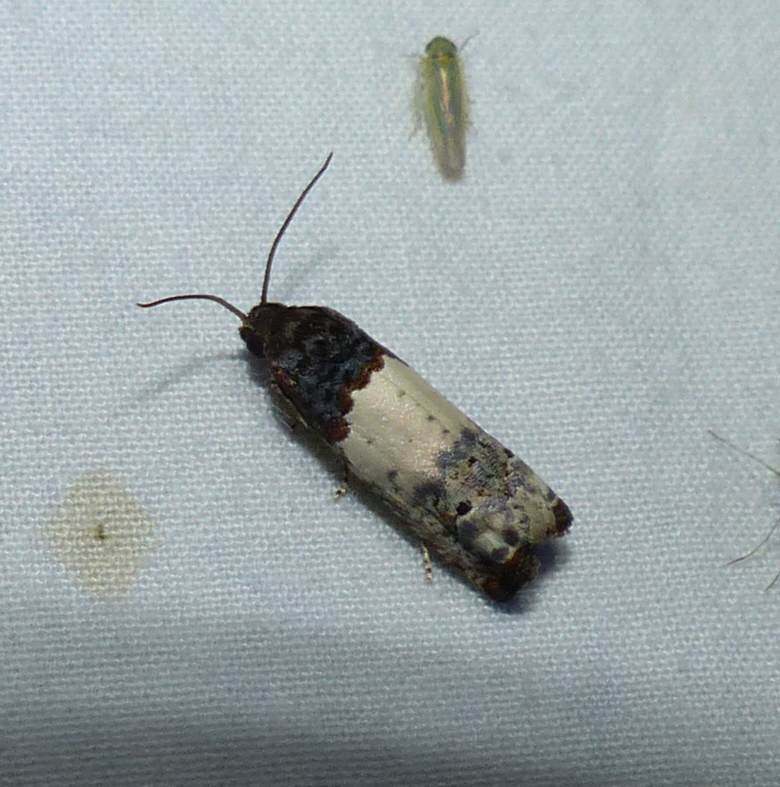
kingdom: Animalia
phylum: Arthropoda
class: Insecta
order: Lepidoptera
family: Tortricidae
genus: Epiblema
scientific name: Epiblema scudderiana
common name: Goldenrod gall moth
